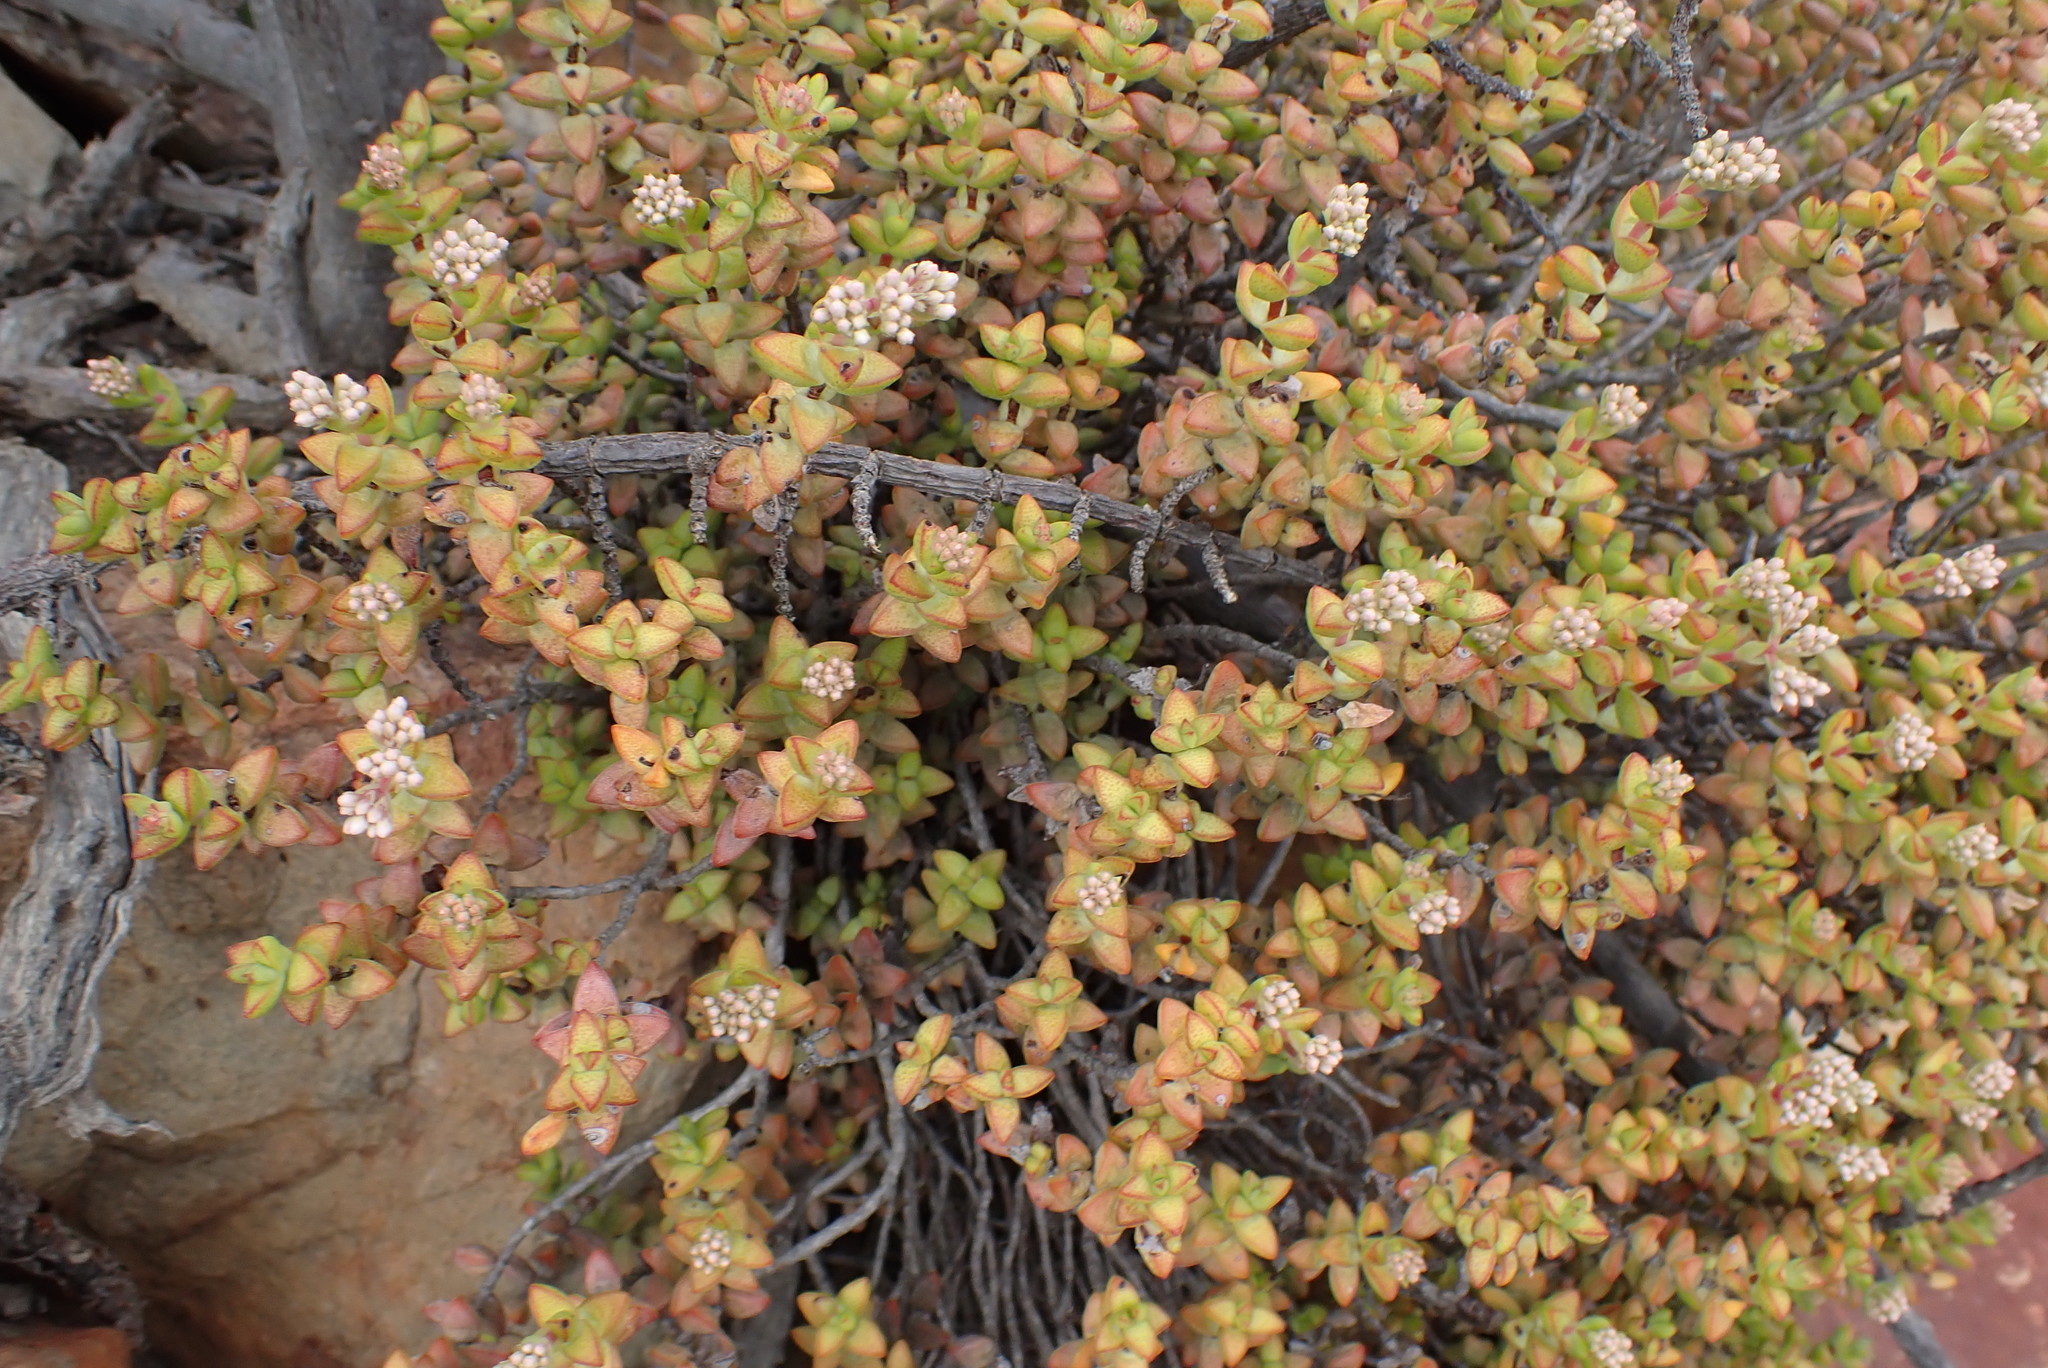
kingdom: Plantae
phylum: Tracheophyta
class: Magnoliopsida
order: Saxifragales
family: Crassulaceae
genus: Crassula
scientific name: Crassula rupestris
